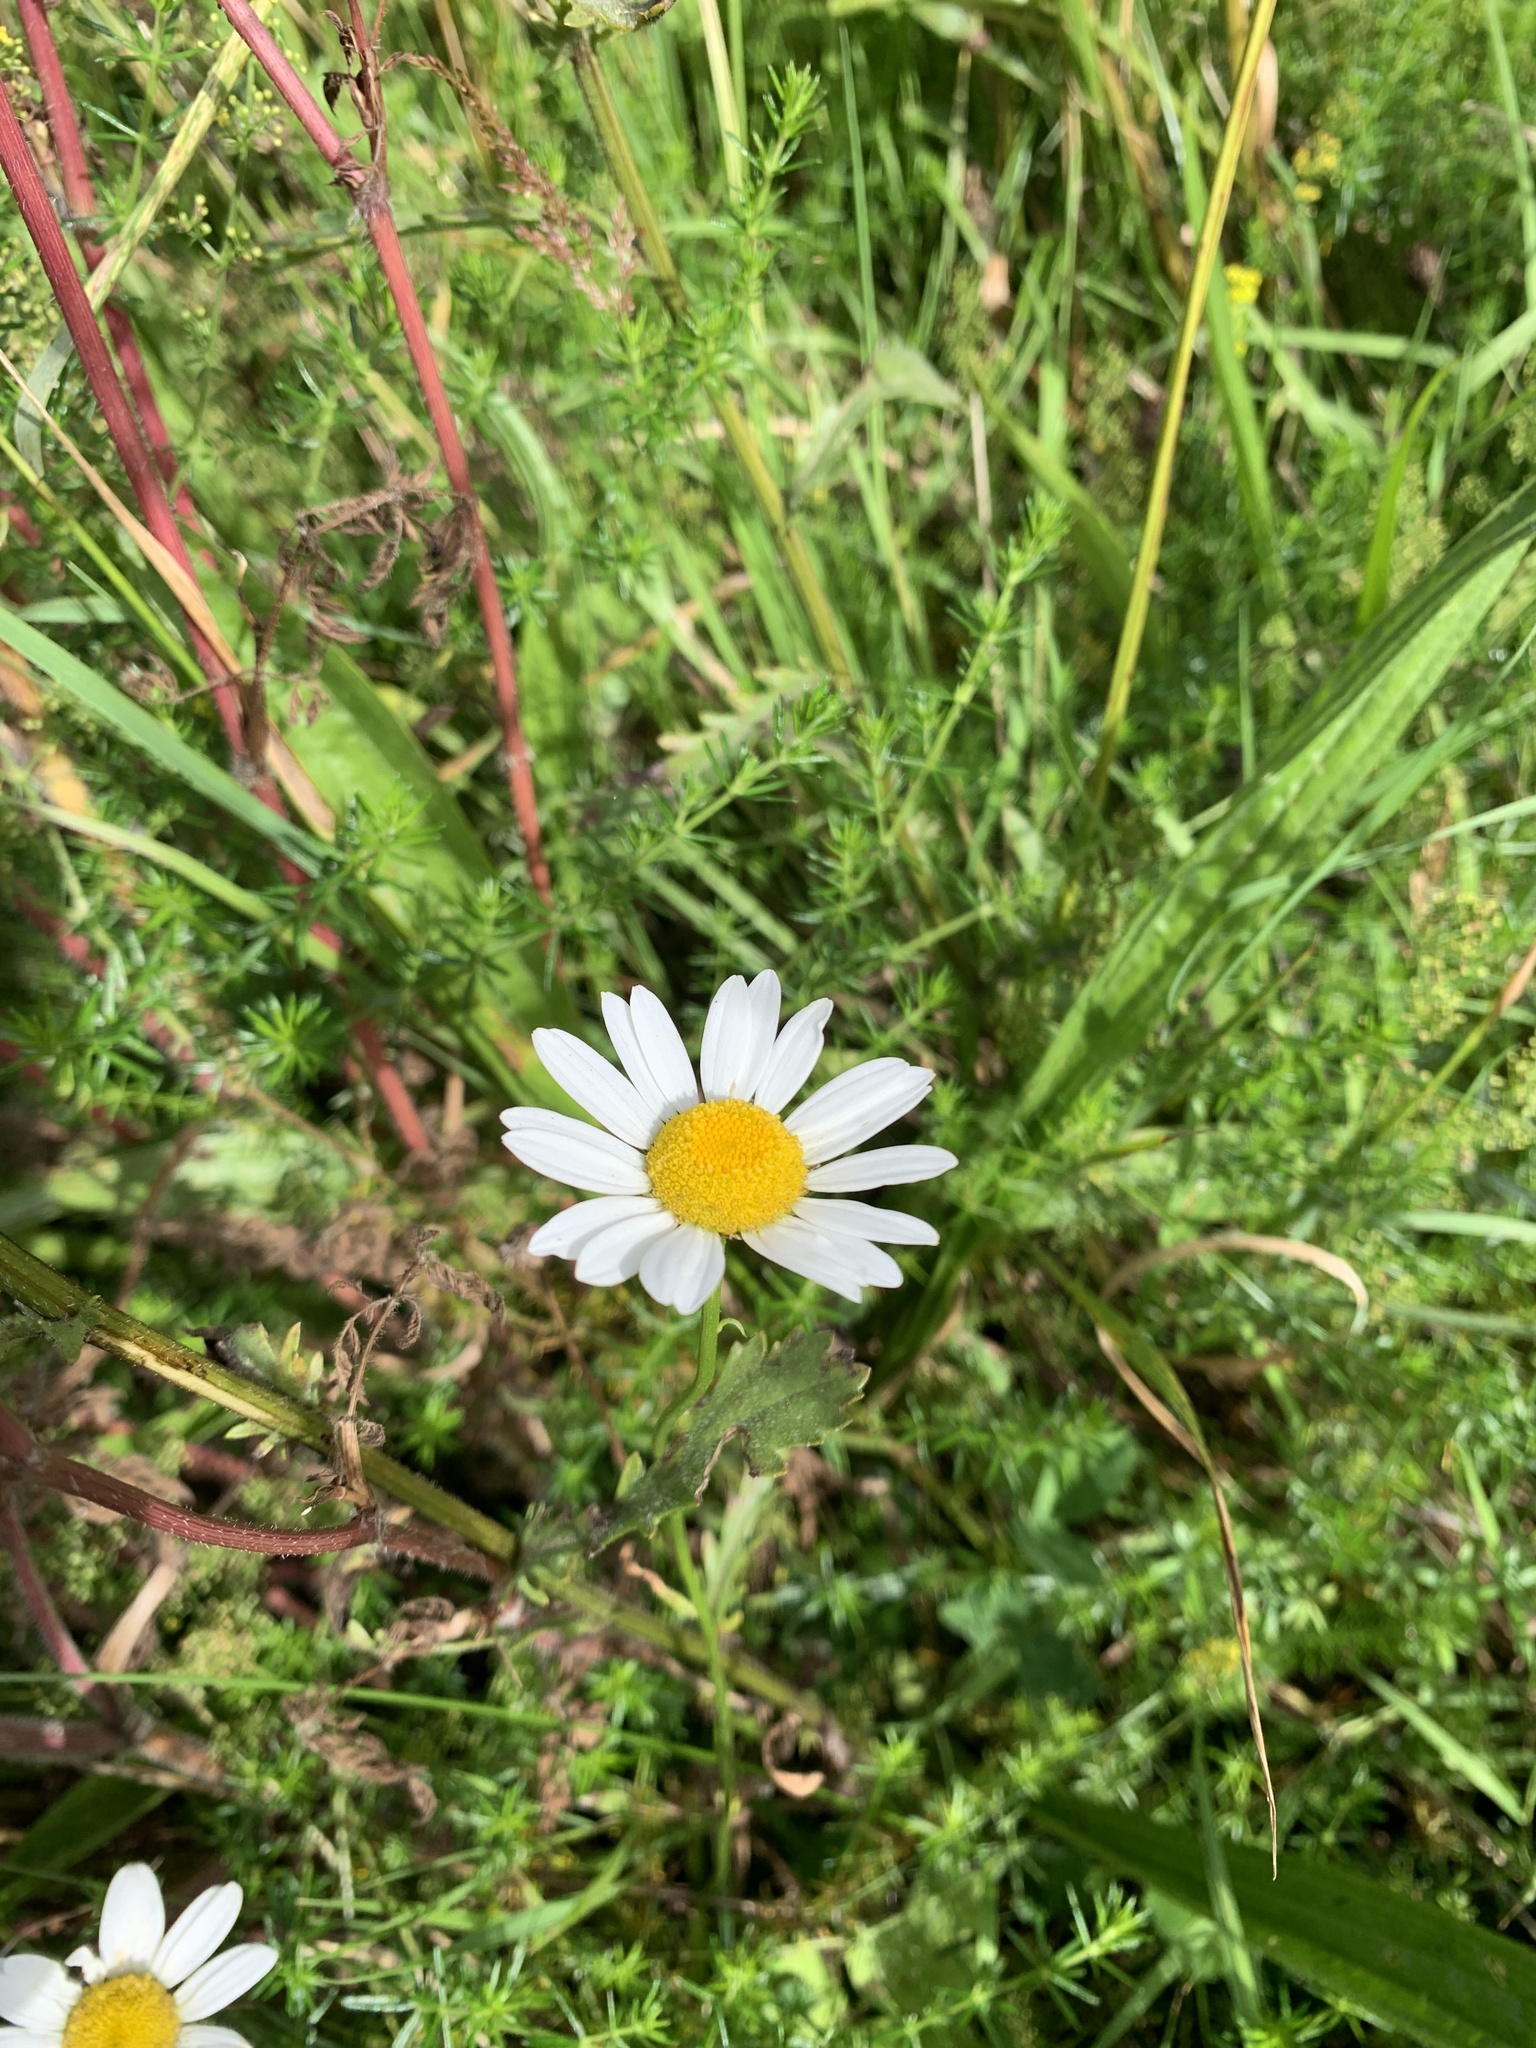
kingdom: Plantae
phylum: Tracheophyta
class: Magnoliopsida
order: Asterales
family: Asteraceae
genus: Leucanthemum
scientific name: Leucanthemum vulgare
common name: Oxeye daisy
